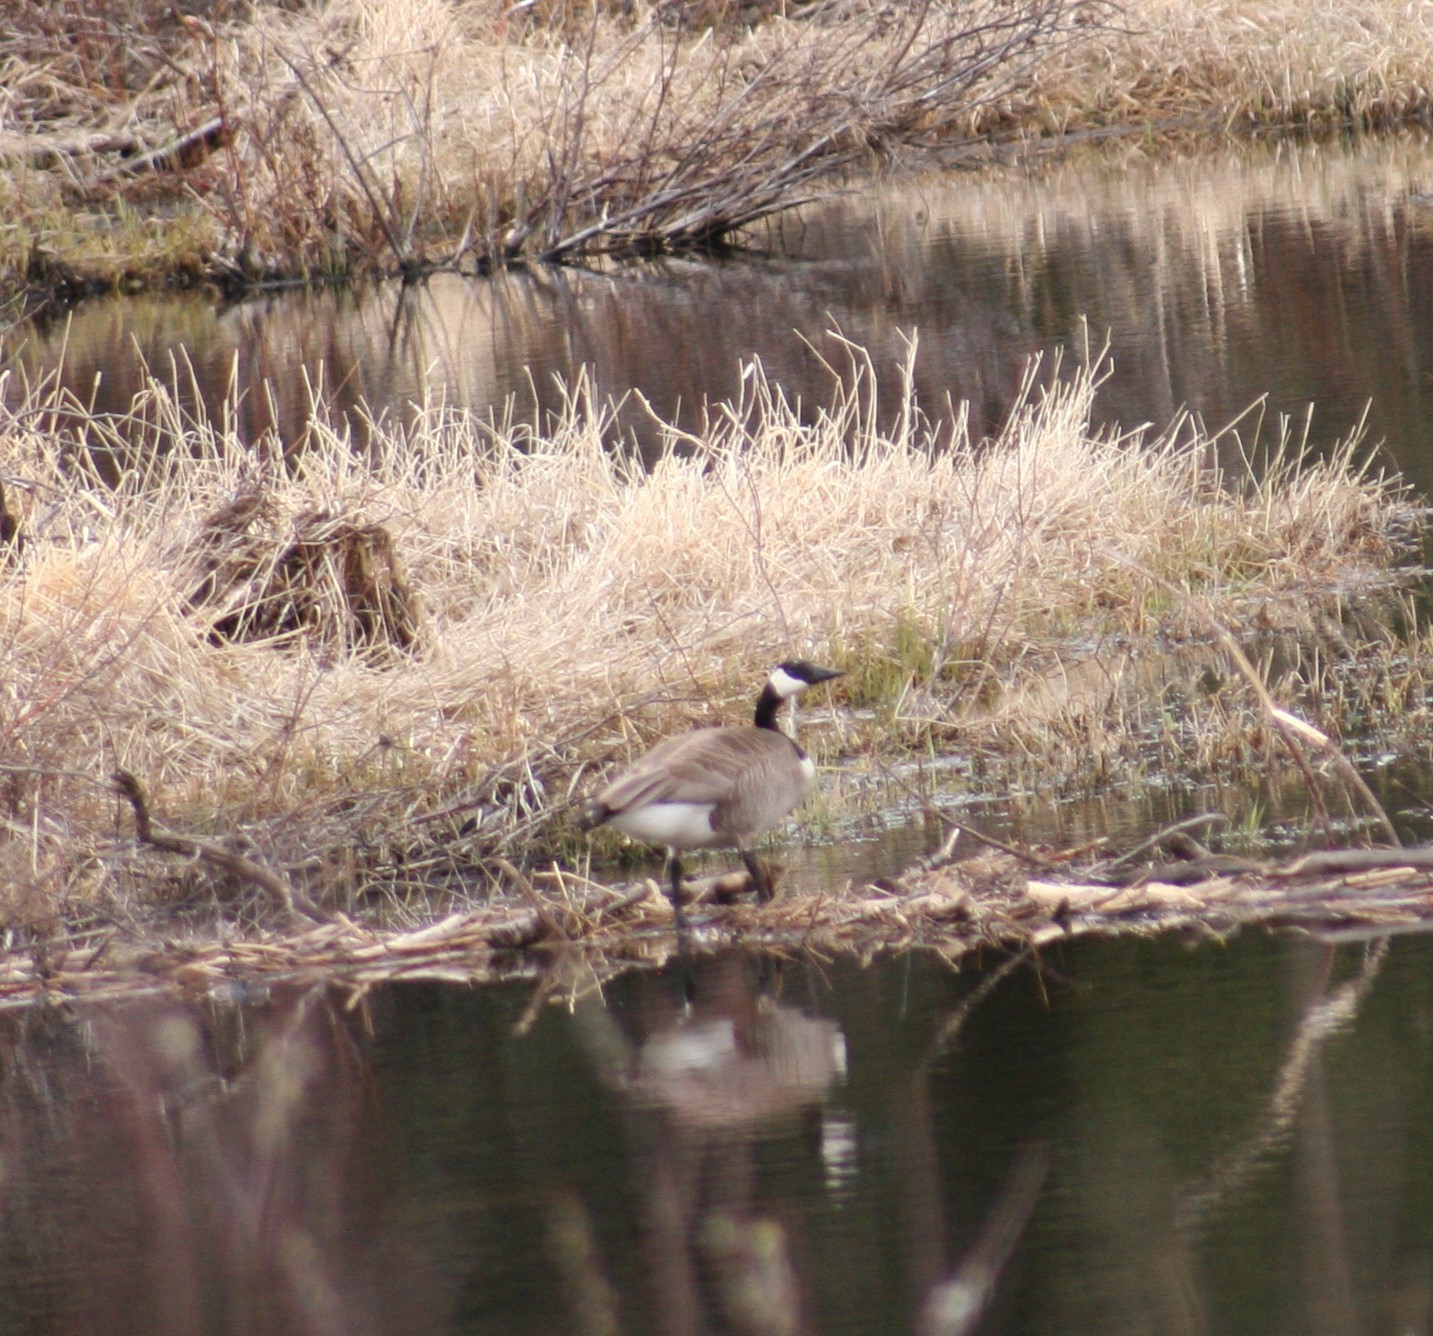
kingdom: Animalia
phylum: Chordata
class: Aves
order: Anseriformes
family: Anatidae
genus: Branta
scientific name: Branta canadensis
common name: Canada goose
